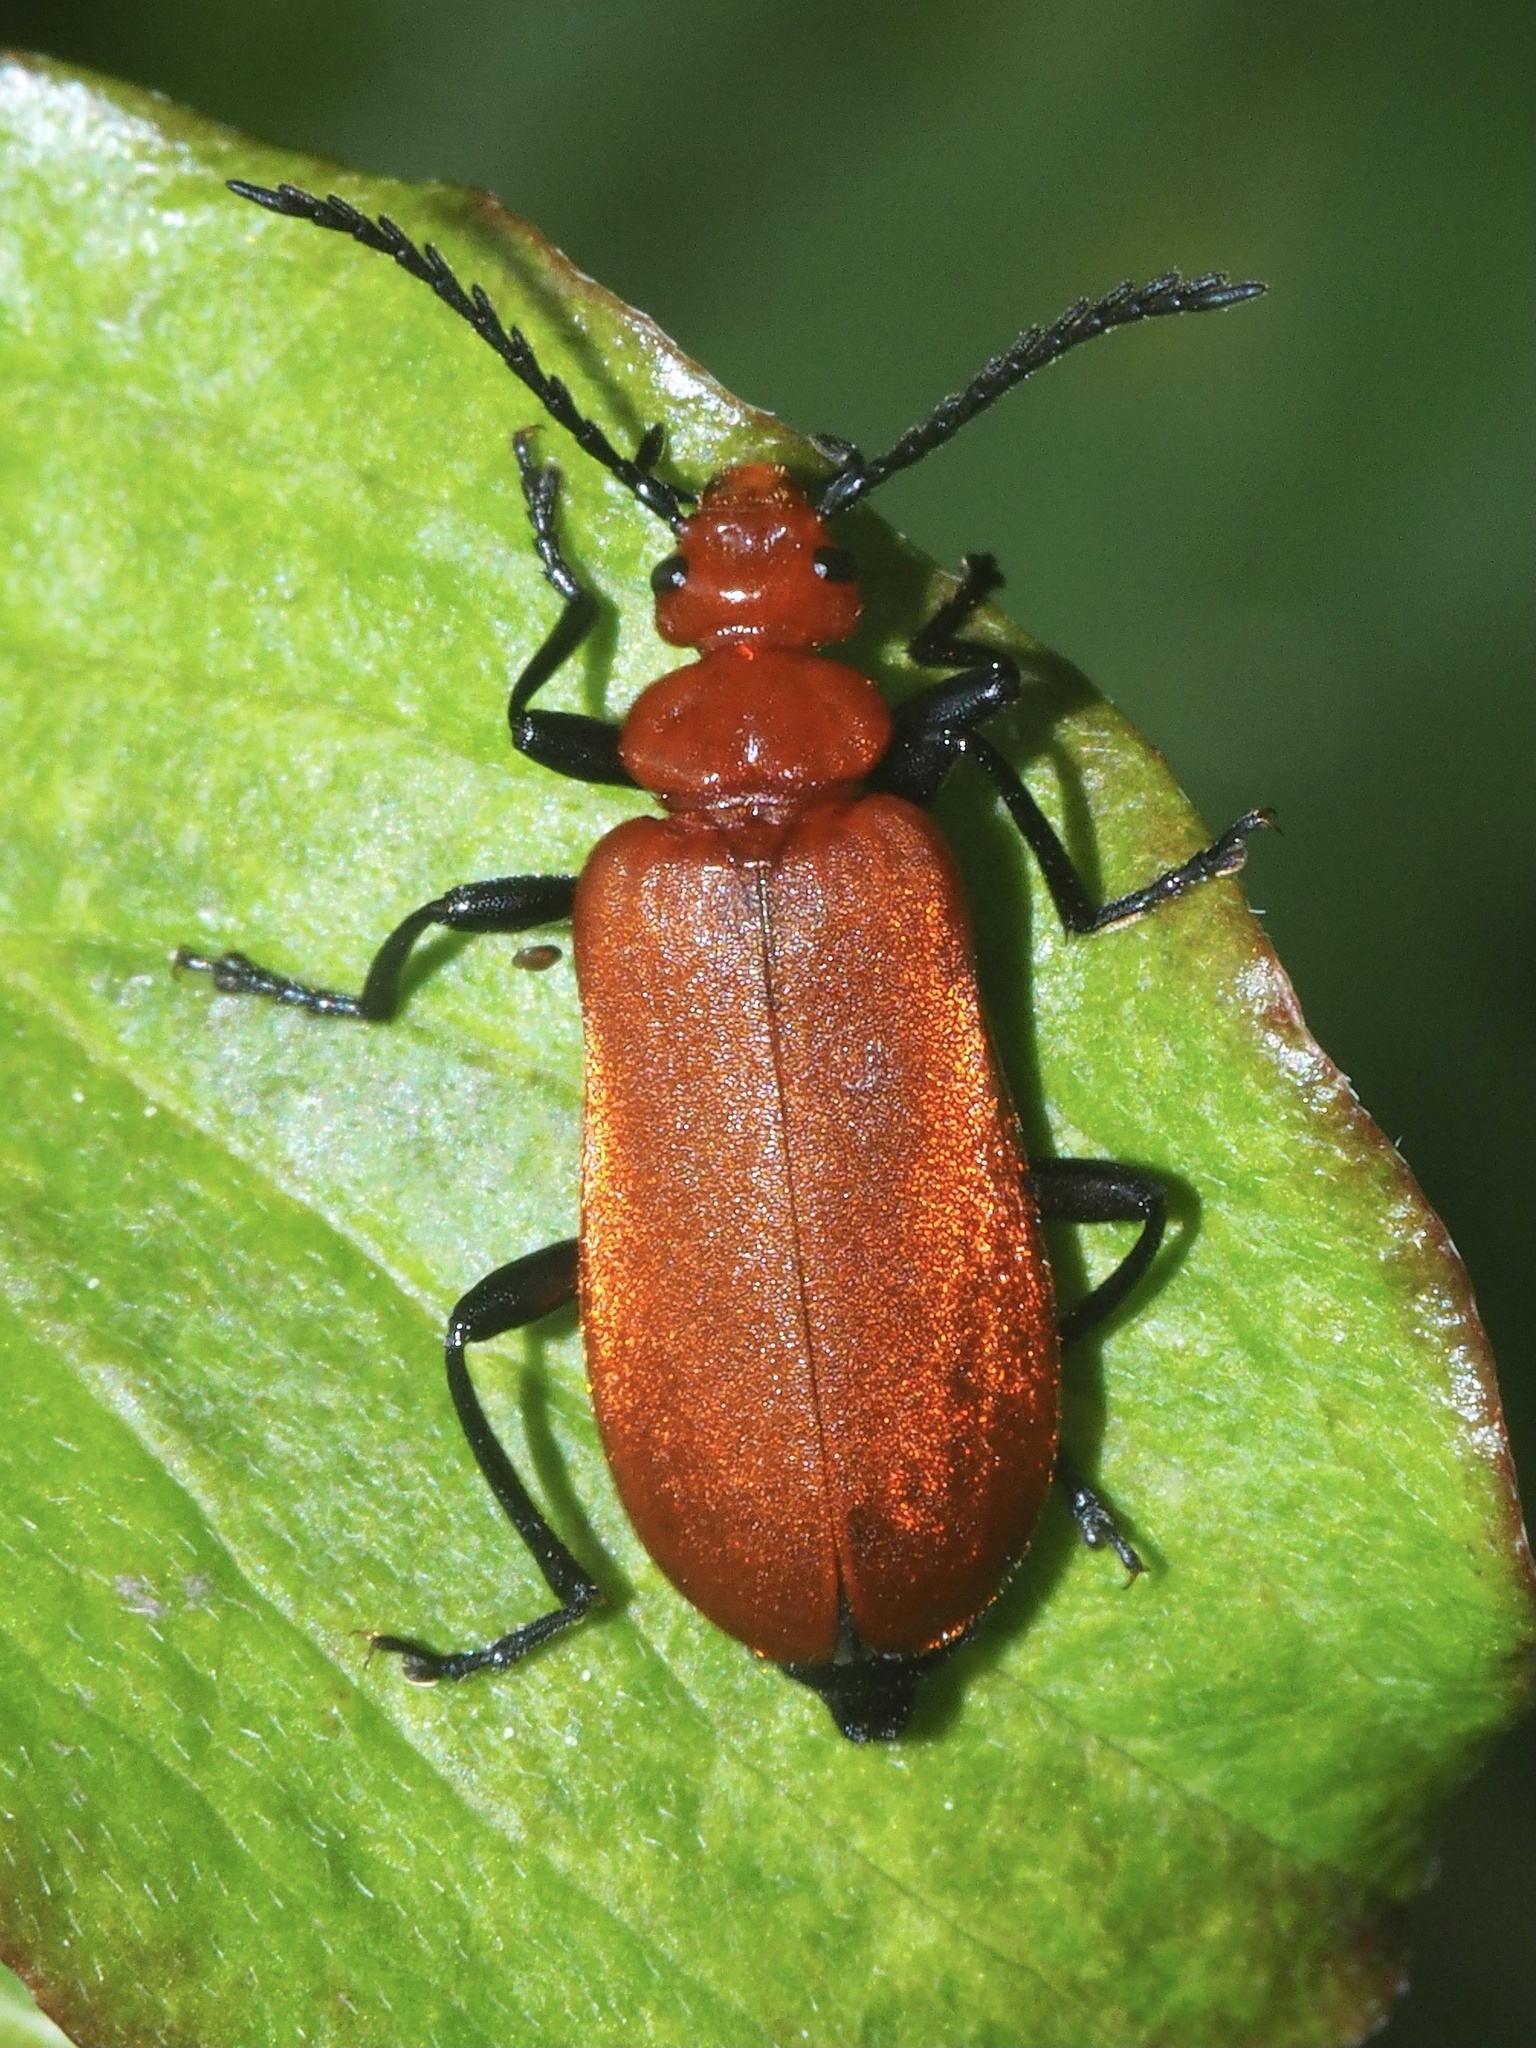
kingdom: Animalia
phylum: Arthropoda
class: Insecta
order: Coleoptera
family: Pyrochroidae
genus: Pyrochroa
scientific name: Pyrochroa serraticornis
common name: Red-headed cardinal beetle
